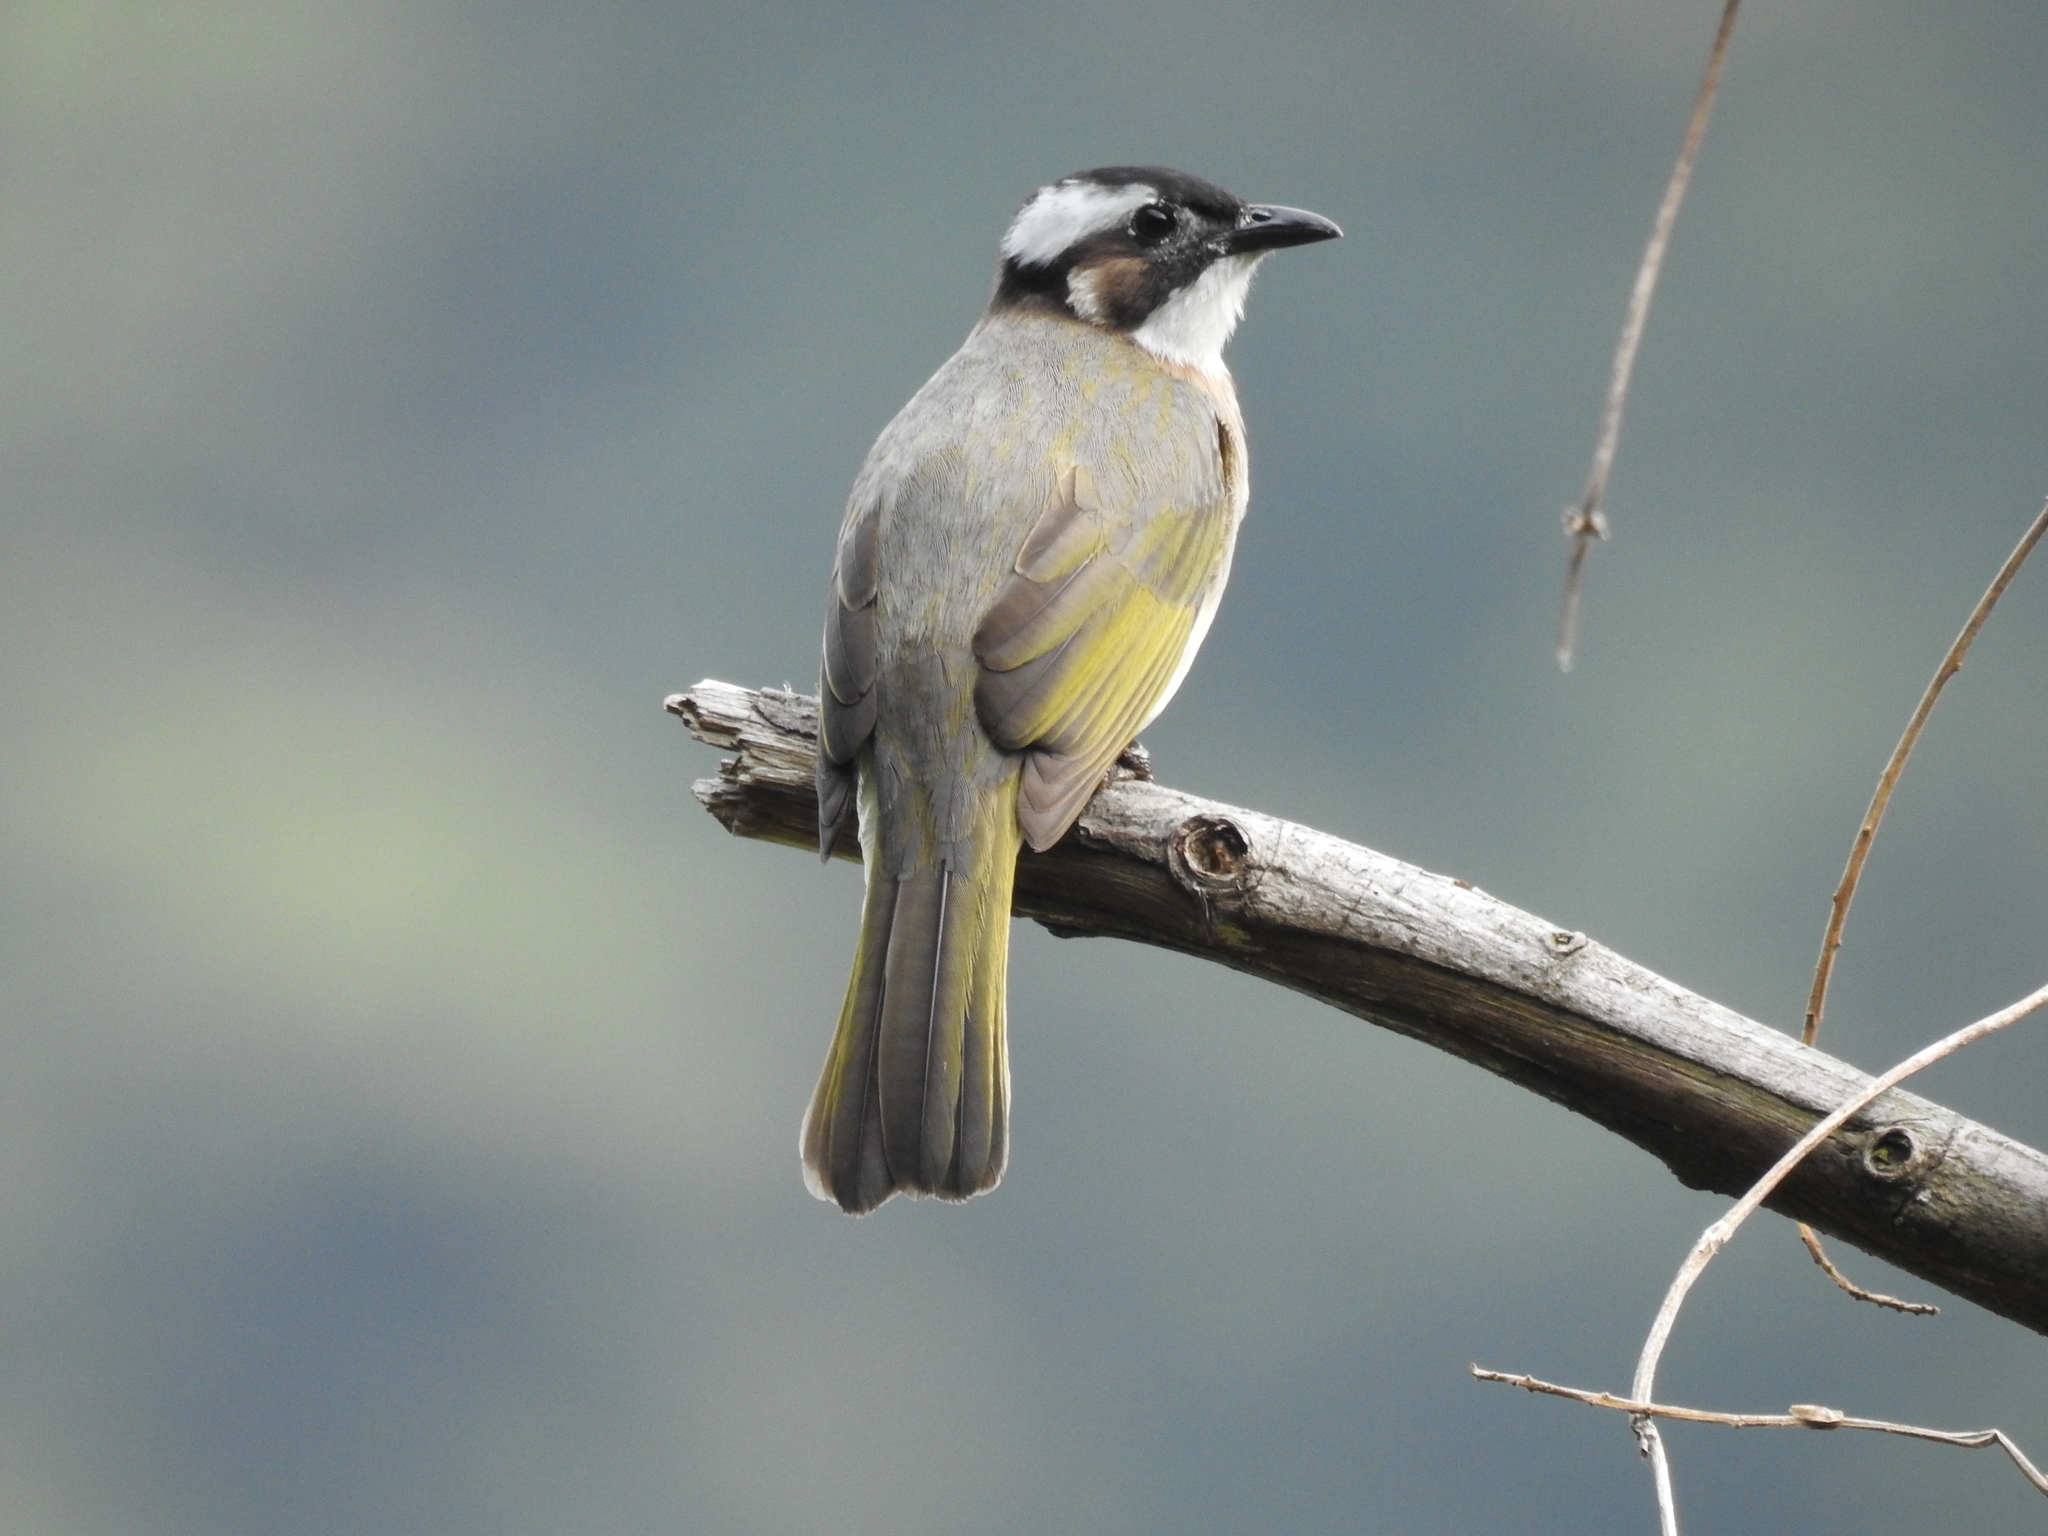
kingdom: Animalia
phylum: Chordata
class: Aves
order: Passeriformes
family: Pycnonotidae
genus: Pycnonotus
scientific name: Pycnonotus sinensis
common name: Light-vented bulbul
